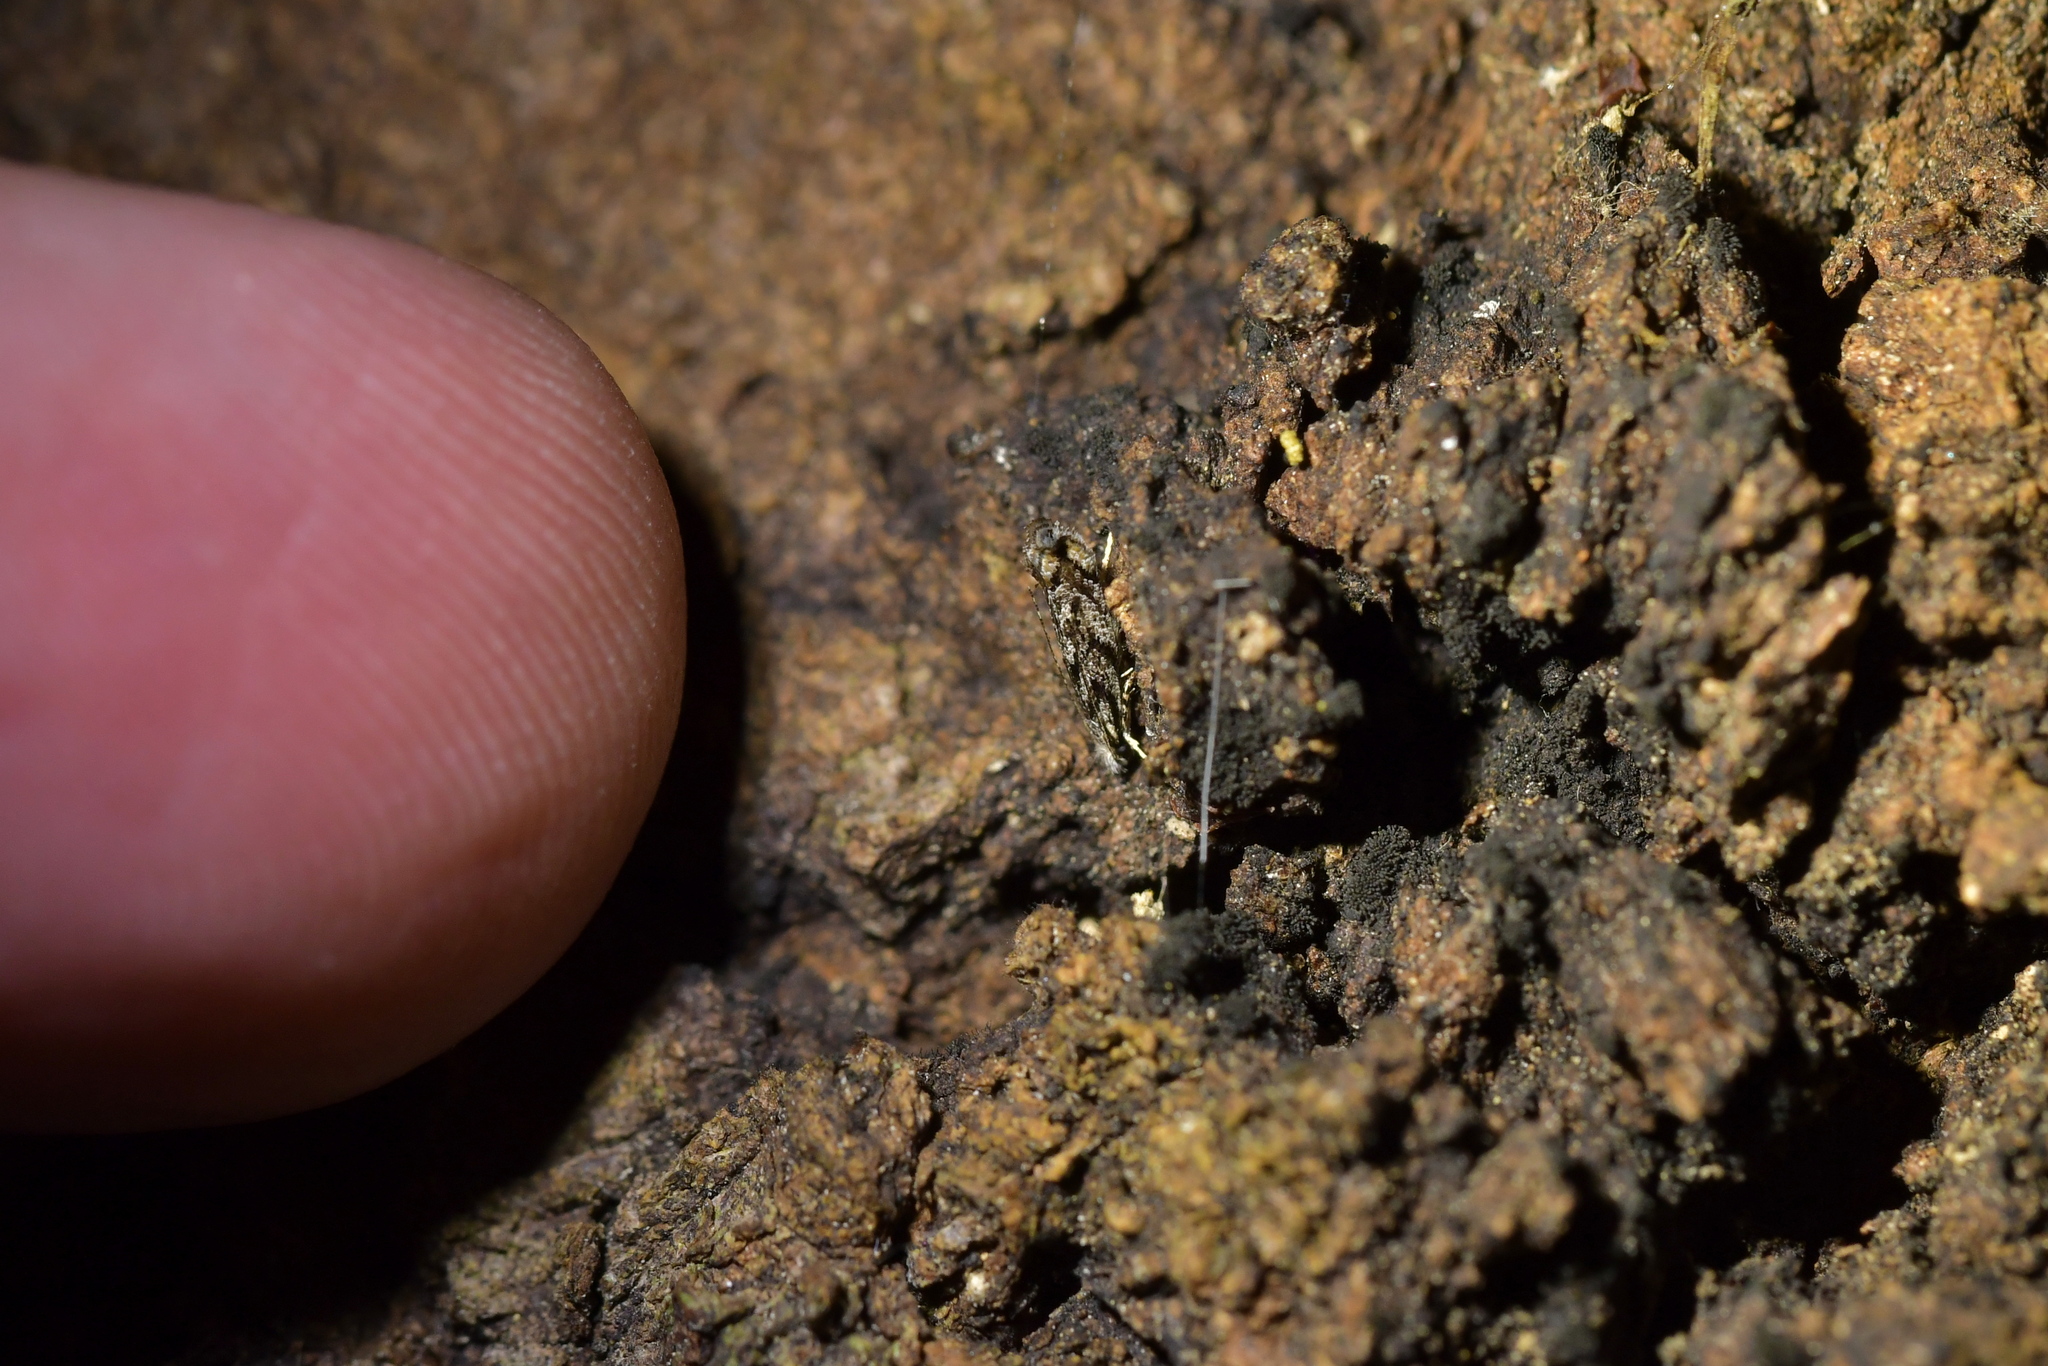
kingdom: Animalia
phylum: Arthropoda
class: Insecta
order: Lepidoptera
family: Tineidae
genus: Erechthias
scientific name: Erechthias crypsimima
